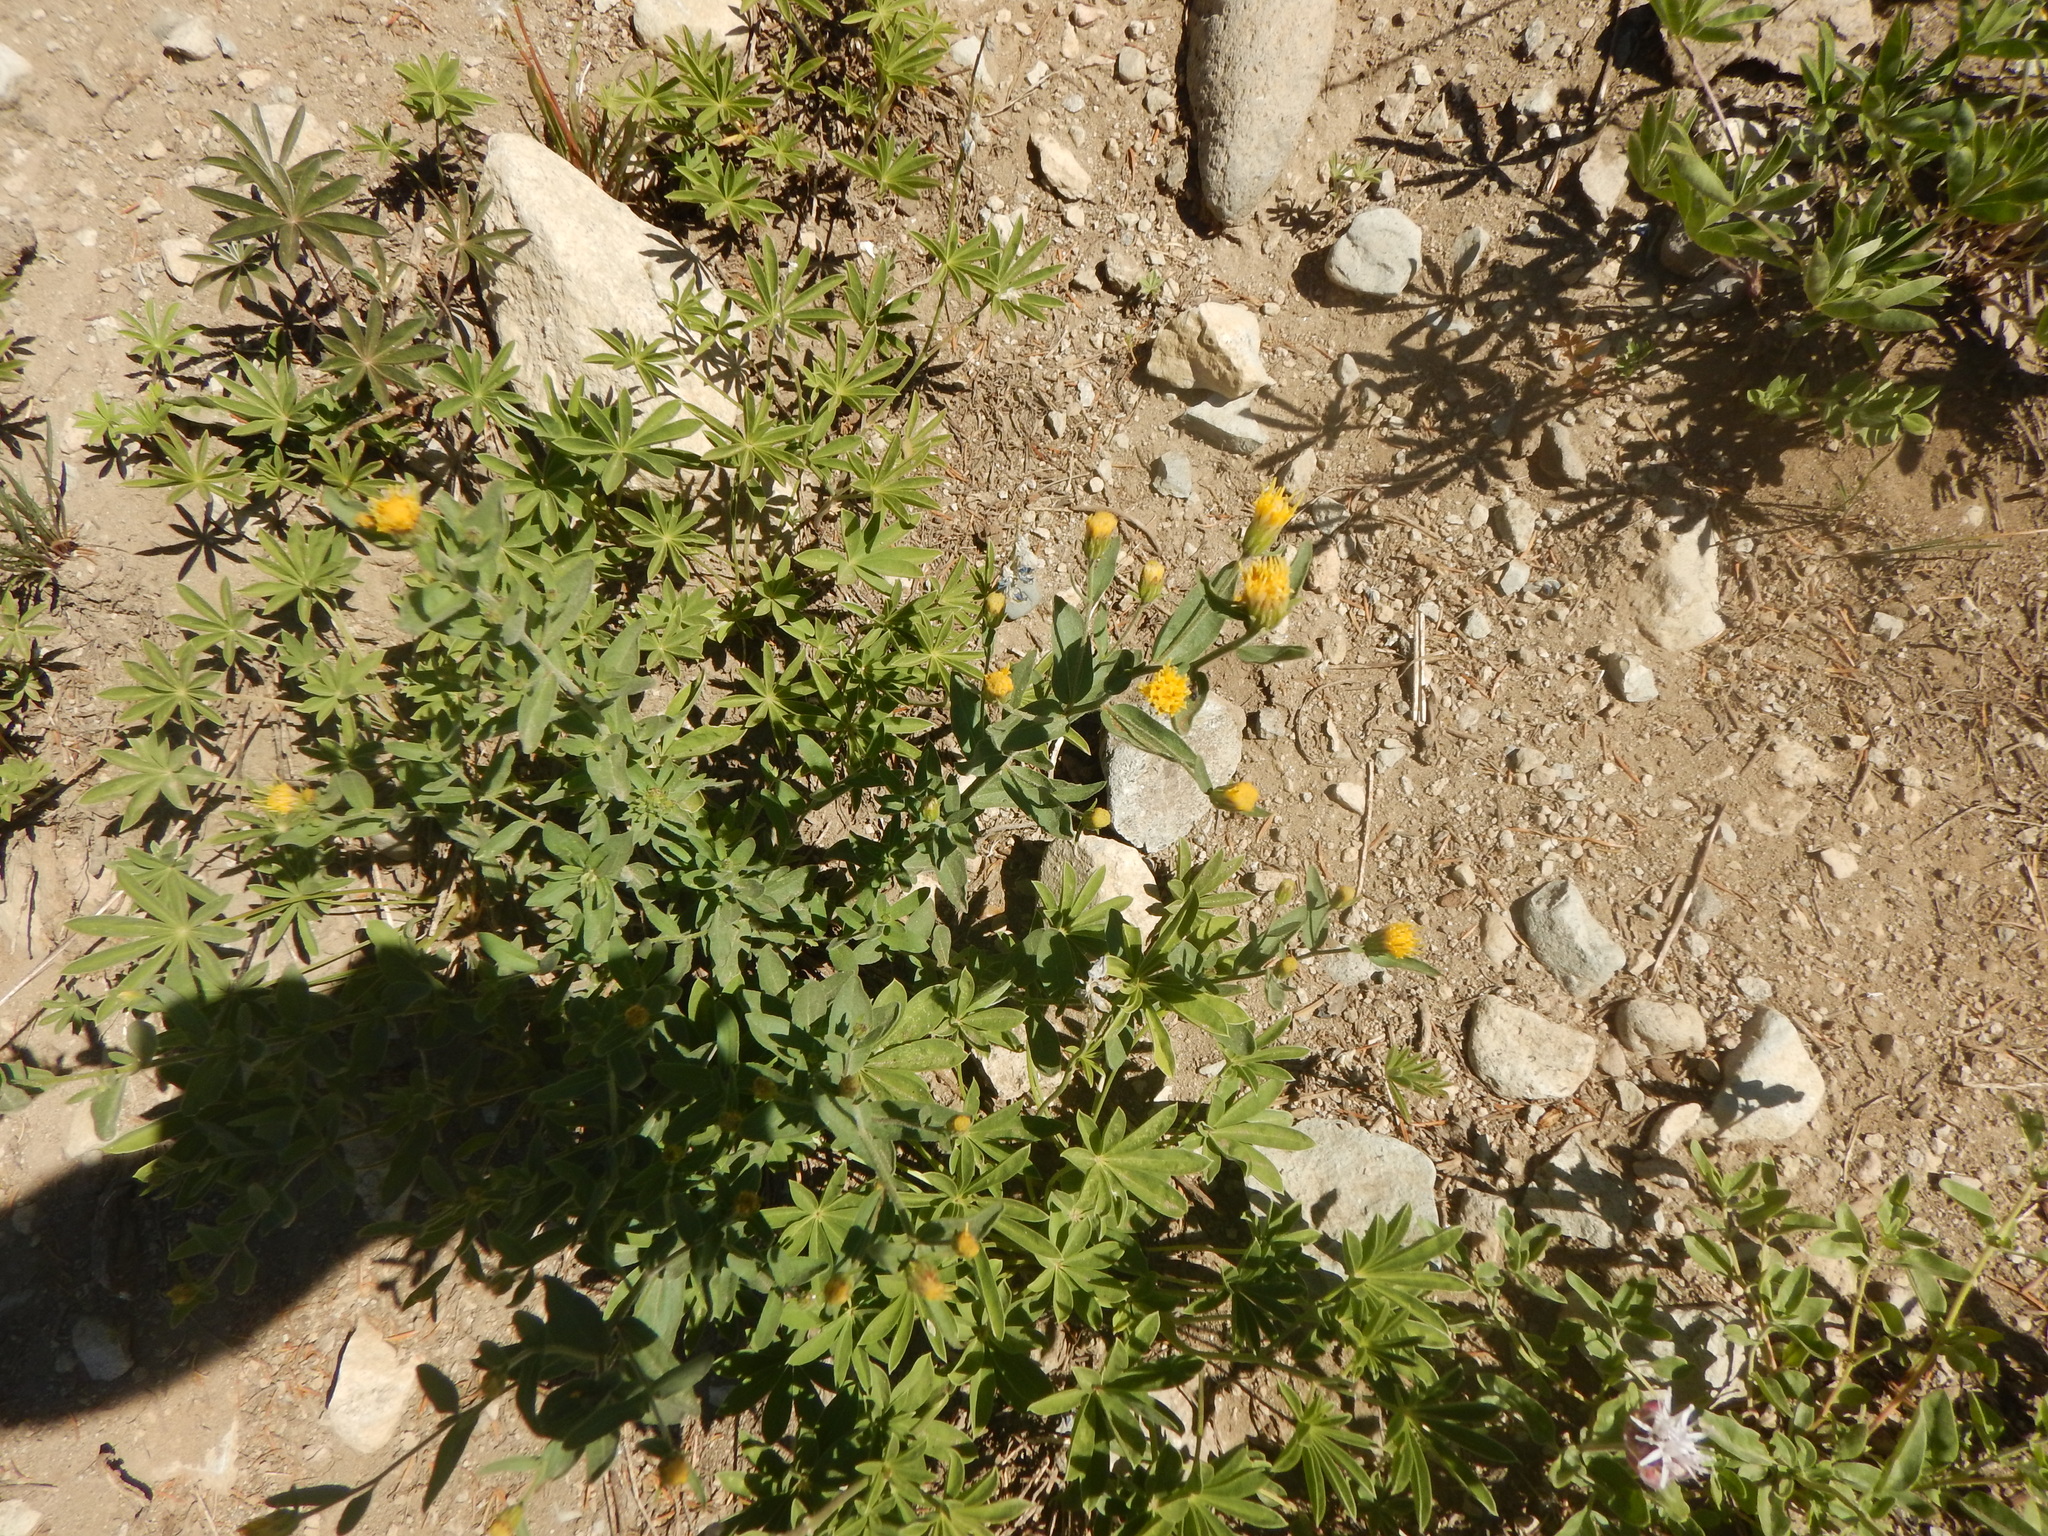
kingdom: Plantae
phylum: Tracheophyta
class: Magnoliopsida
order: Asterales
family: Asteraceae
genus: Eucephalus
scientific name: Eucephalus breweri
